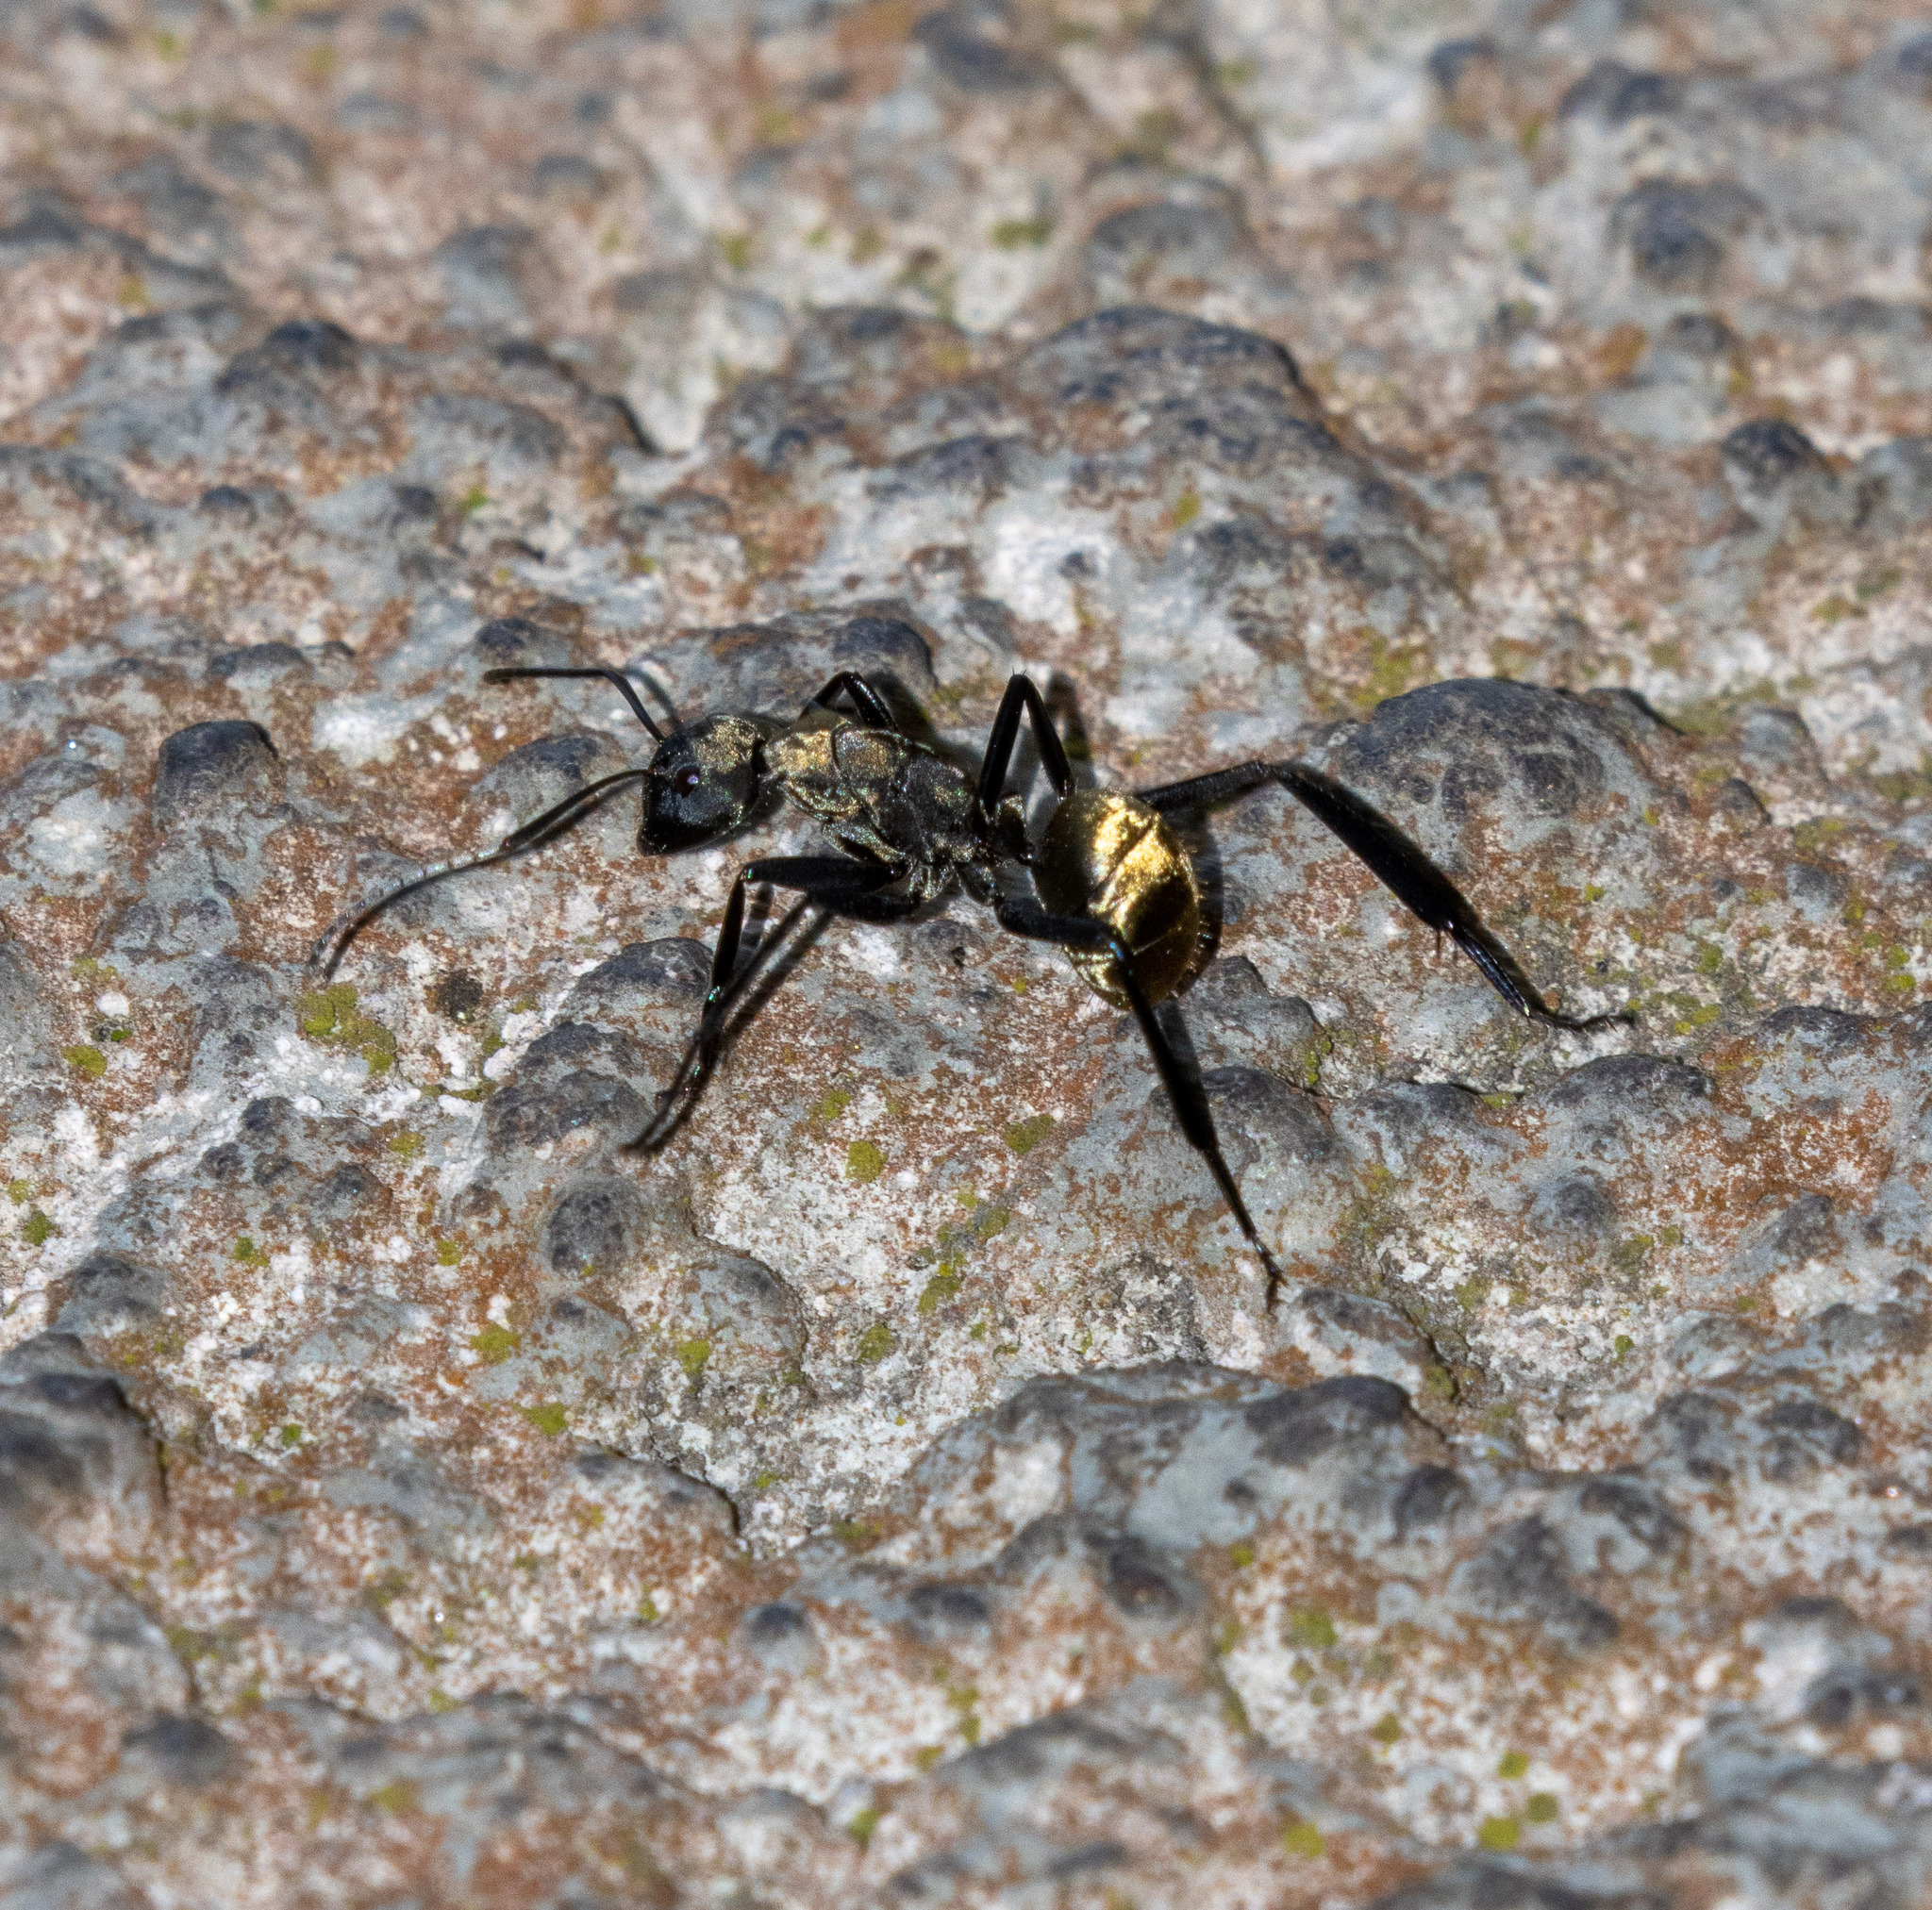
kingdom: Animalia
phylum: Arthropoda
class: Insecta
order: Hymenoptera
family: Formicidae
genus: Camponotus
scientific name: Camponotus sericeiventris
